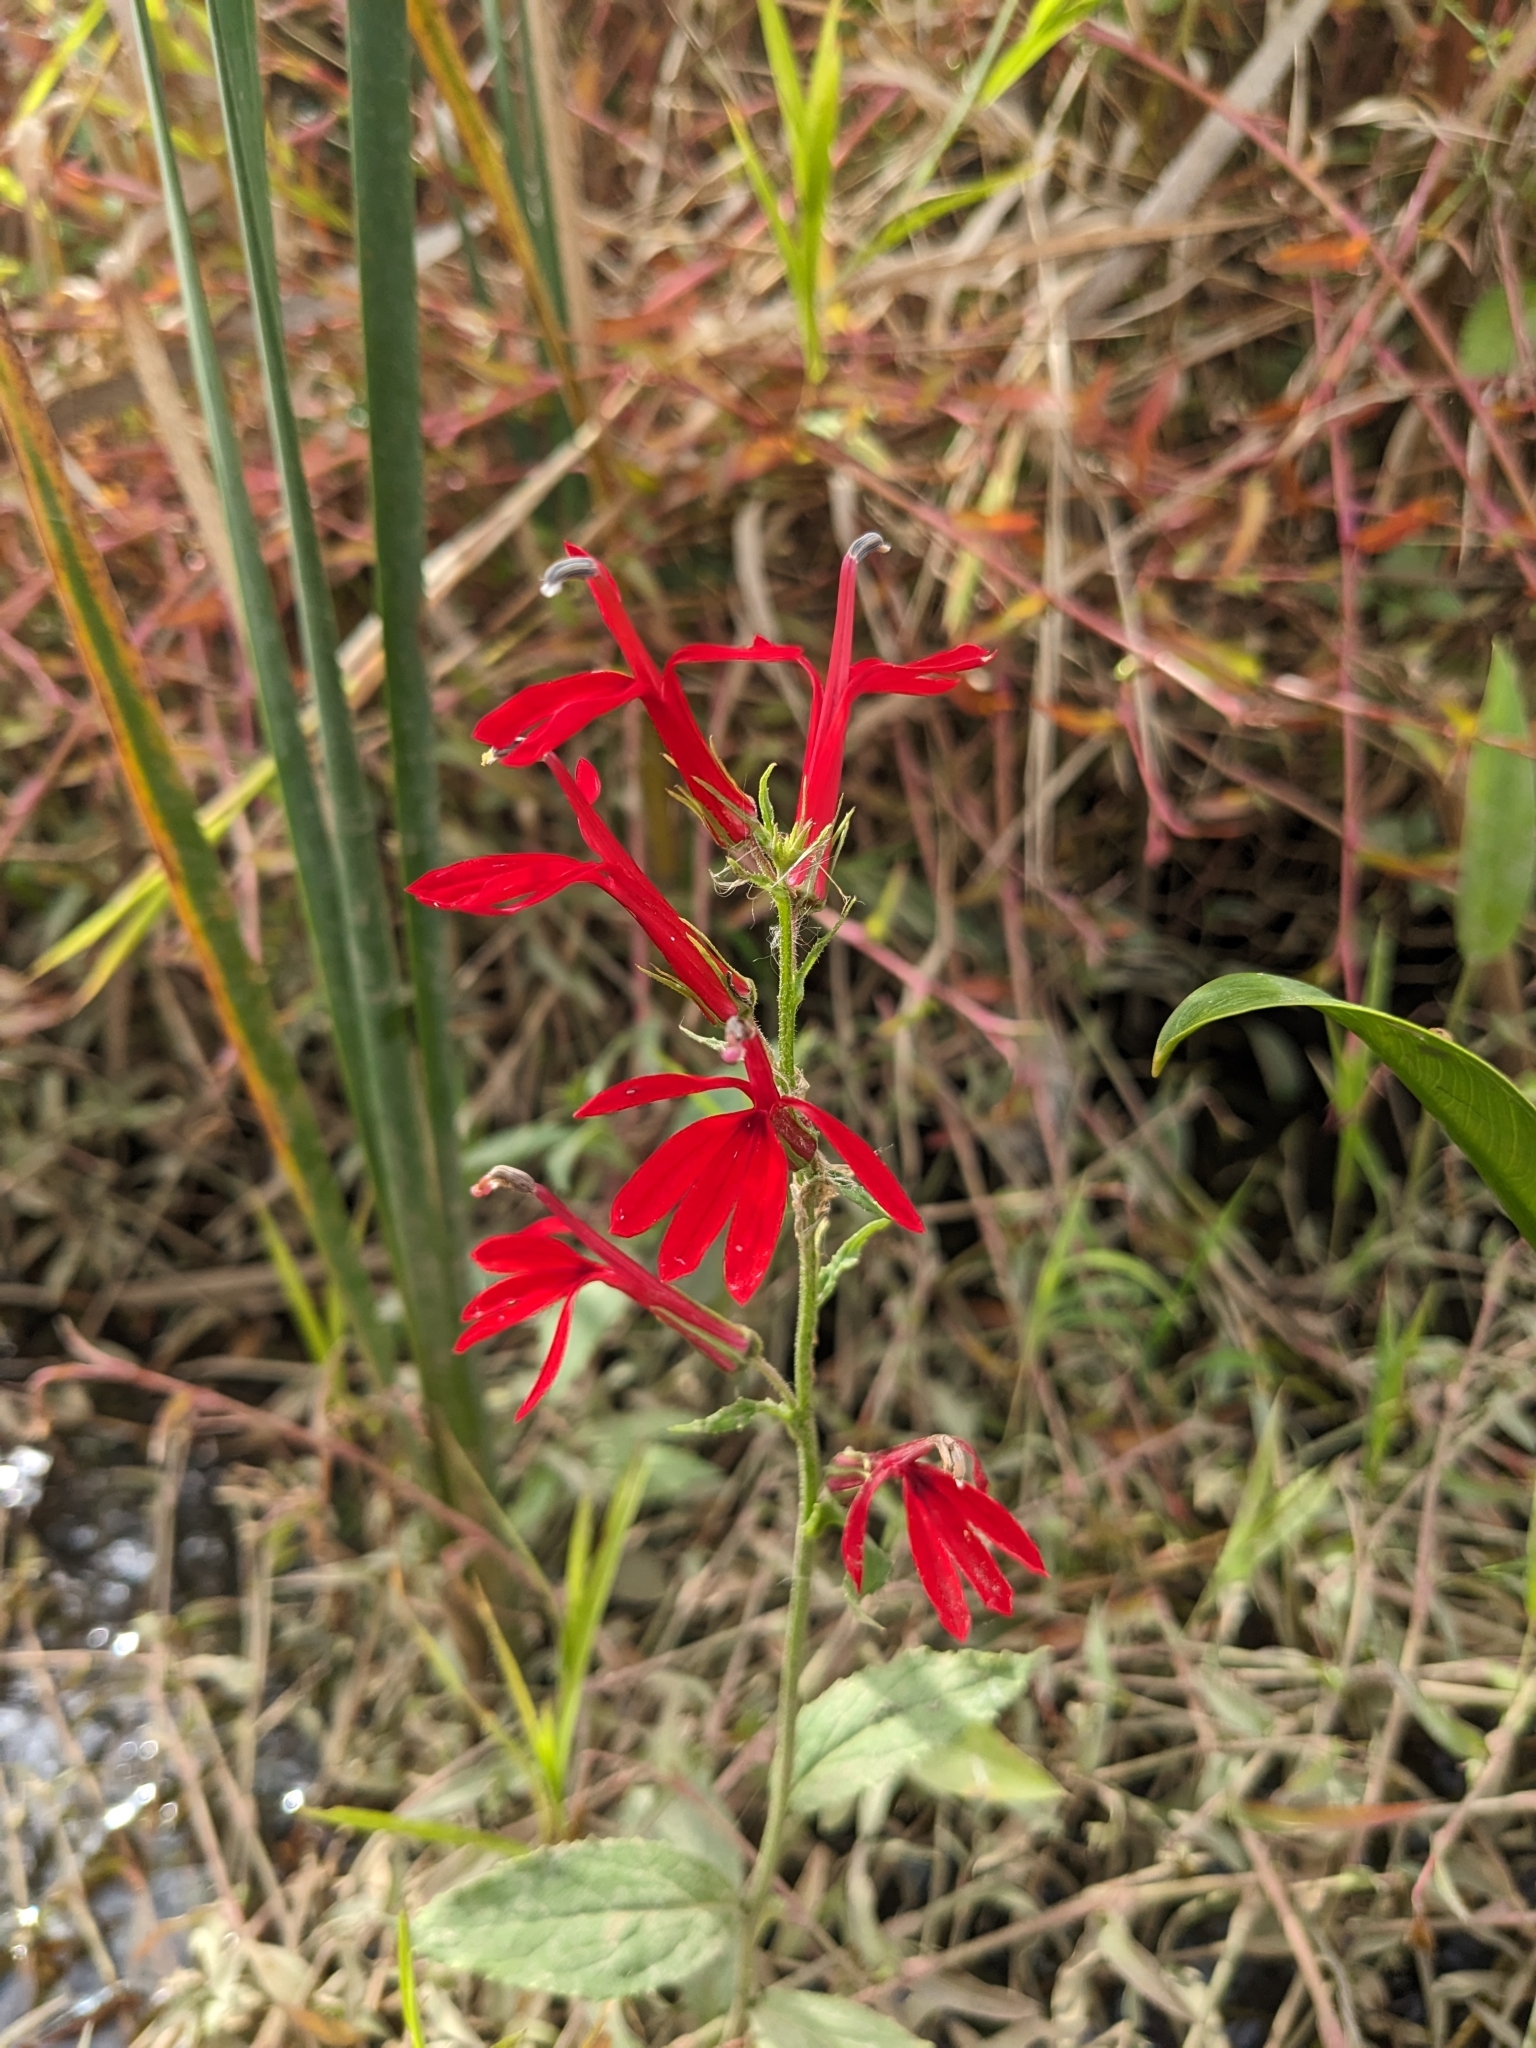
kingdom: Plantae
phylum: Tracheophyta
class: Magnoliopsida
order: Asterales
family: Campanulaceae
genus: Lobelia
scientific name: Lobelia cardinalis
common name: Cardinal flower
